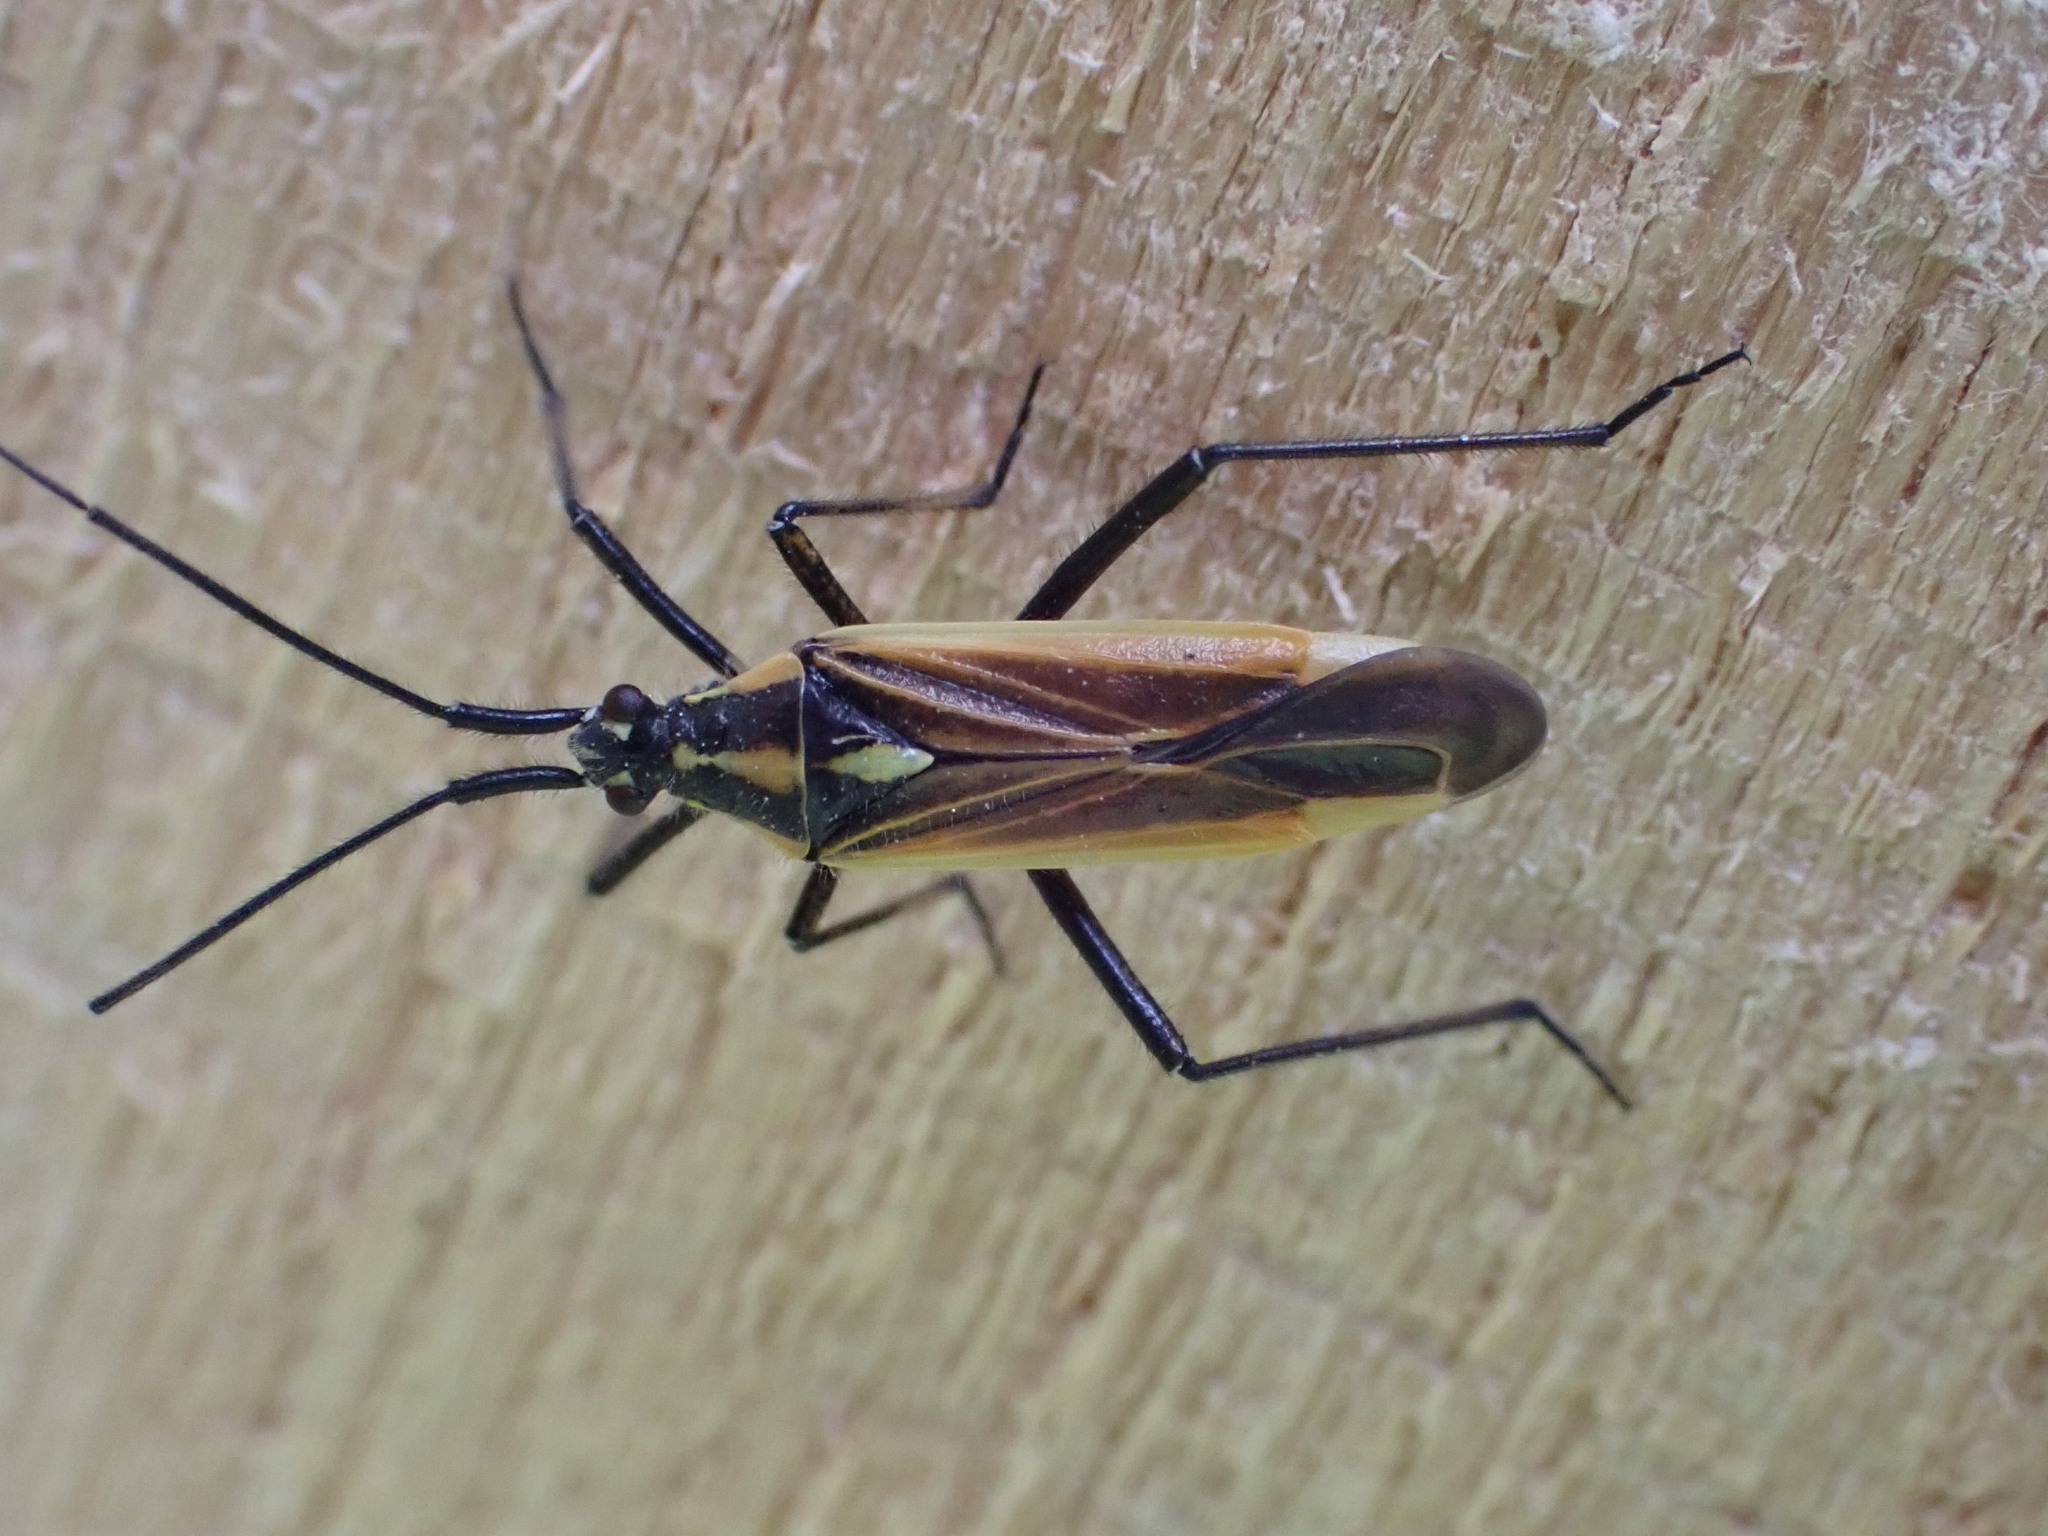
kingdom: Animalia
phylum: Arthropoda
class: Insecta
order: Hemiptera
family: Miridae
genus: Leptopterna
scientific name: Leptopterna dolabrata
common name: Meadow plant bug
